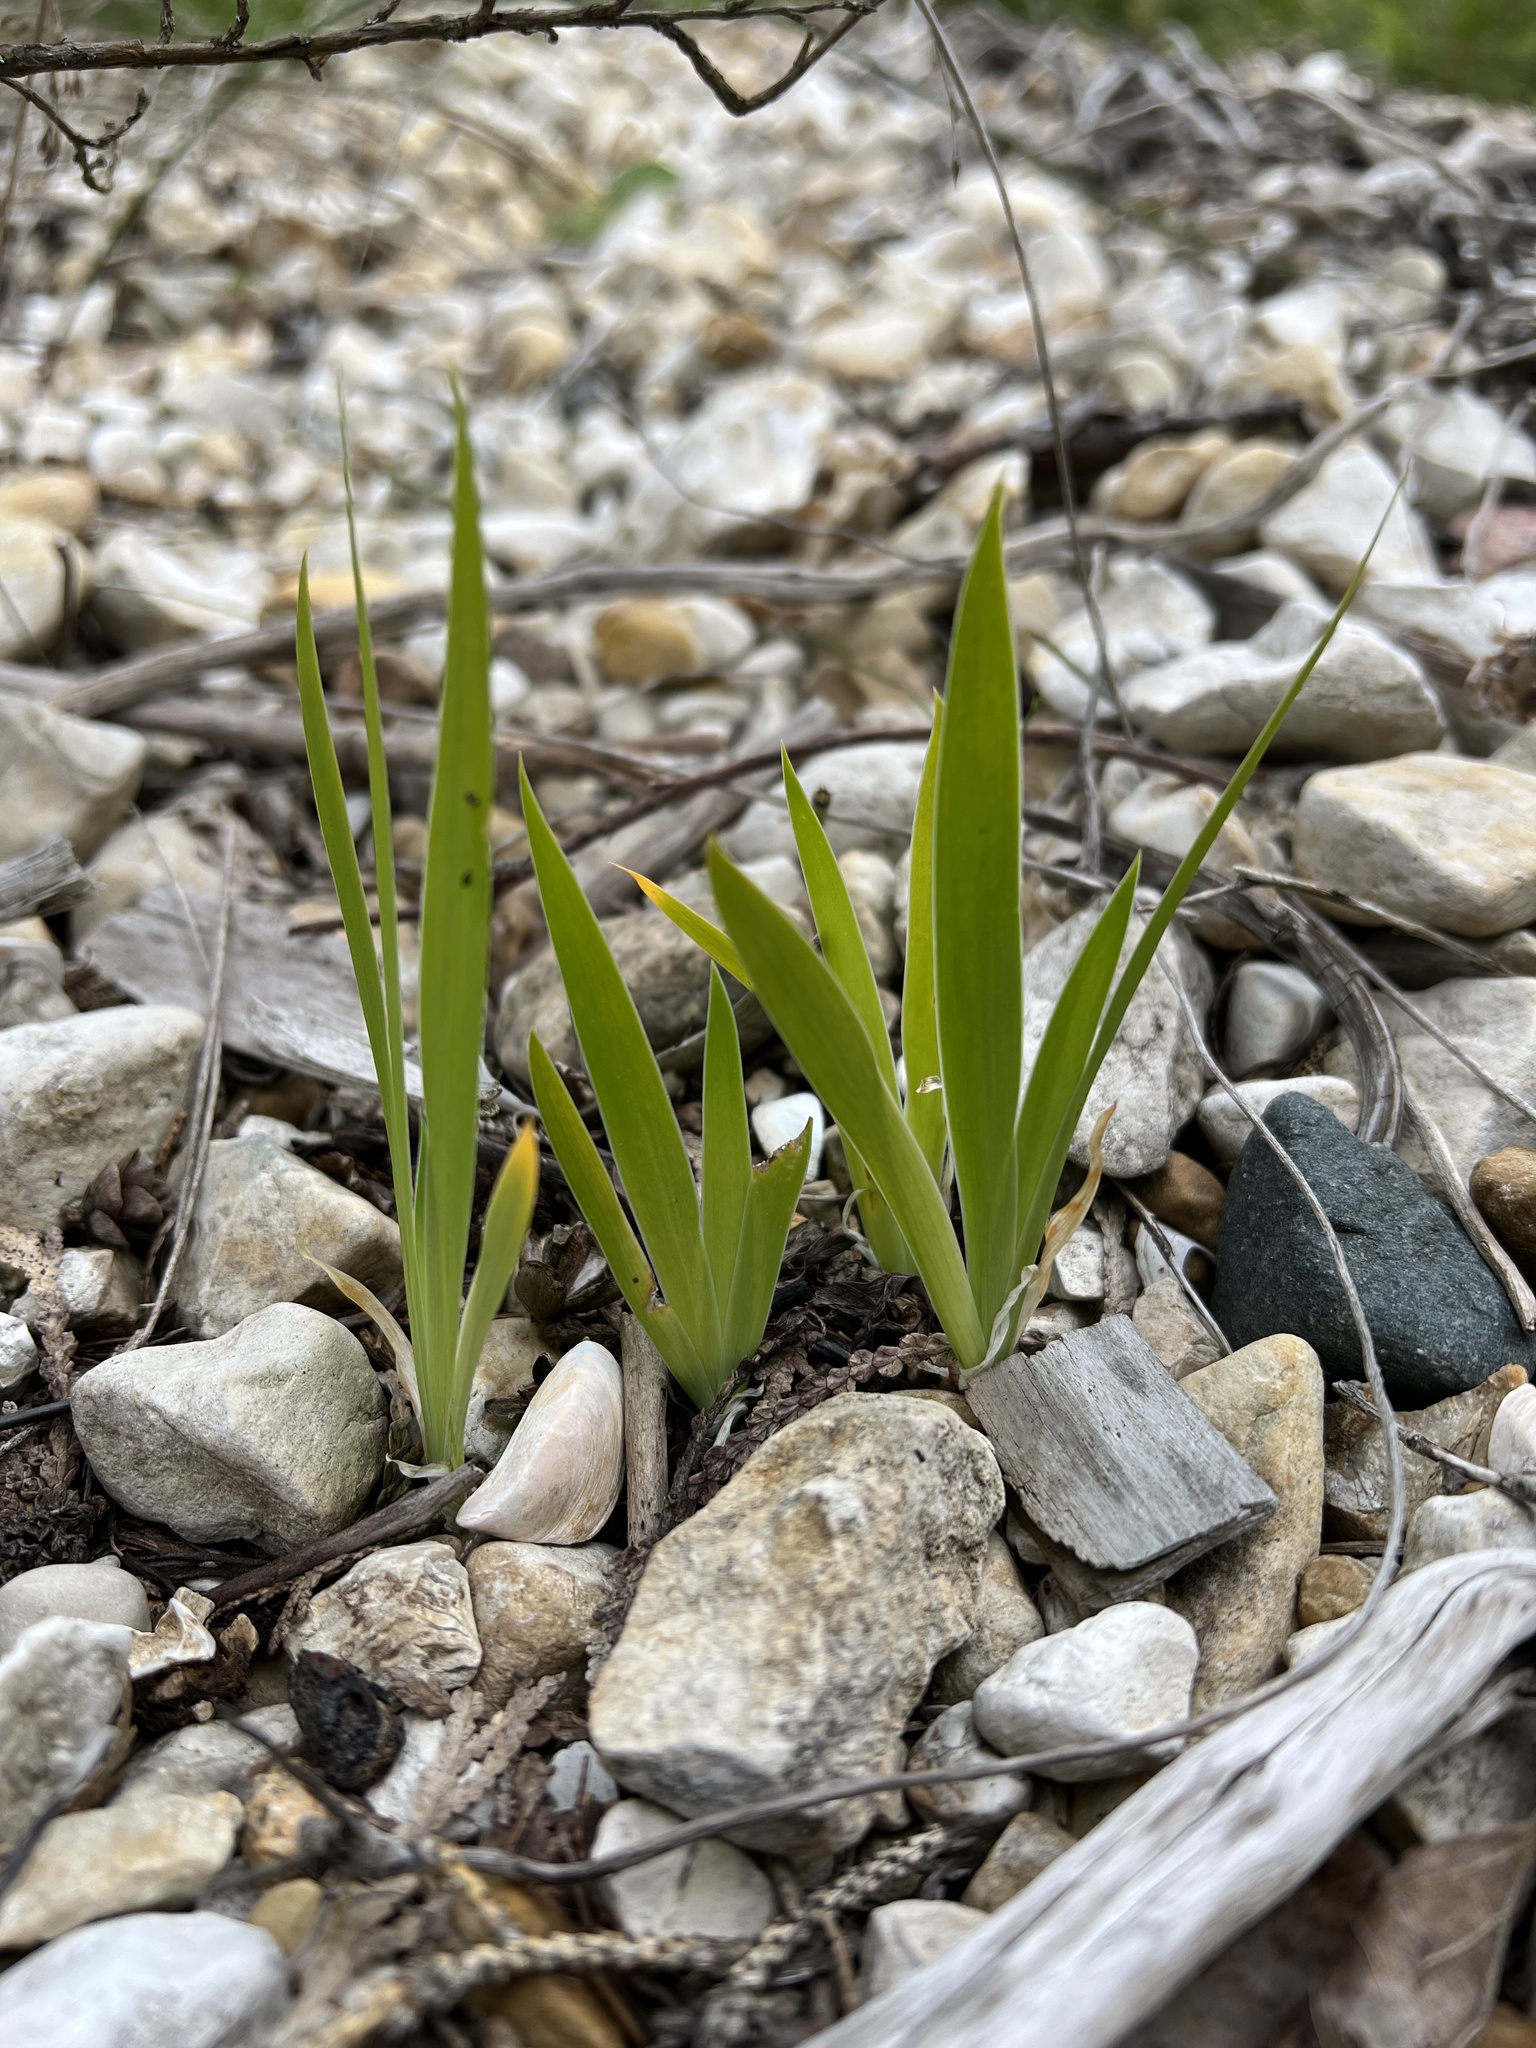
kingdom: Plantae
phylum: Tracheophyta
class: Liliopsida
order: Asparagales
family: Iridaceae
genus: Iris
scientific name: Iris lacustris
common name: Dwarf lake iris
